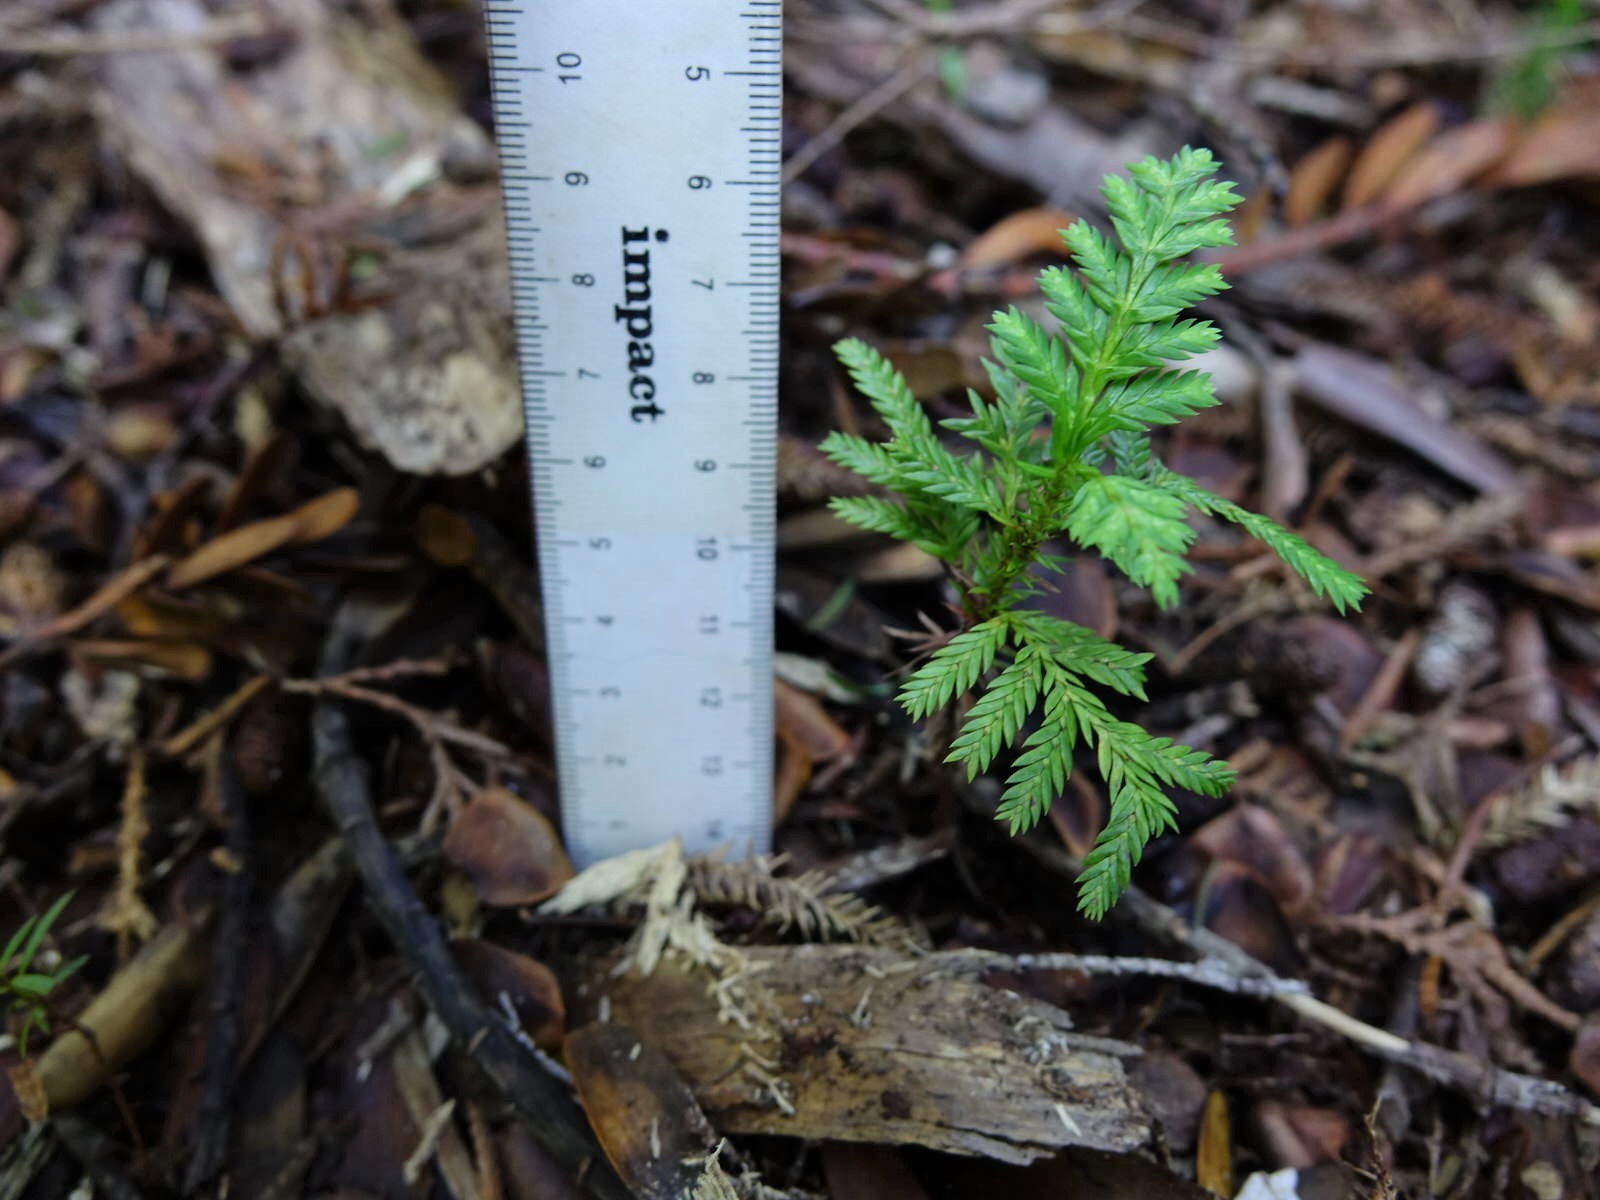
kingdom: Plantae
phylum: Tracheophyta
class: Pinopsida
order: Pinales
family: Cupressaceae
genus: Libocedrus
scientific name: Libocedrus plumosa
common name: New zealand cedar
